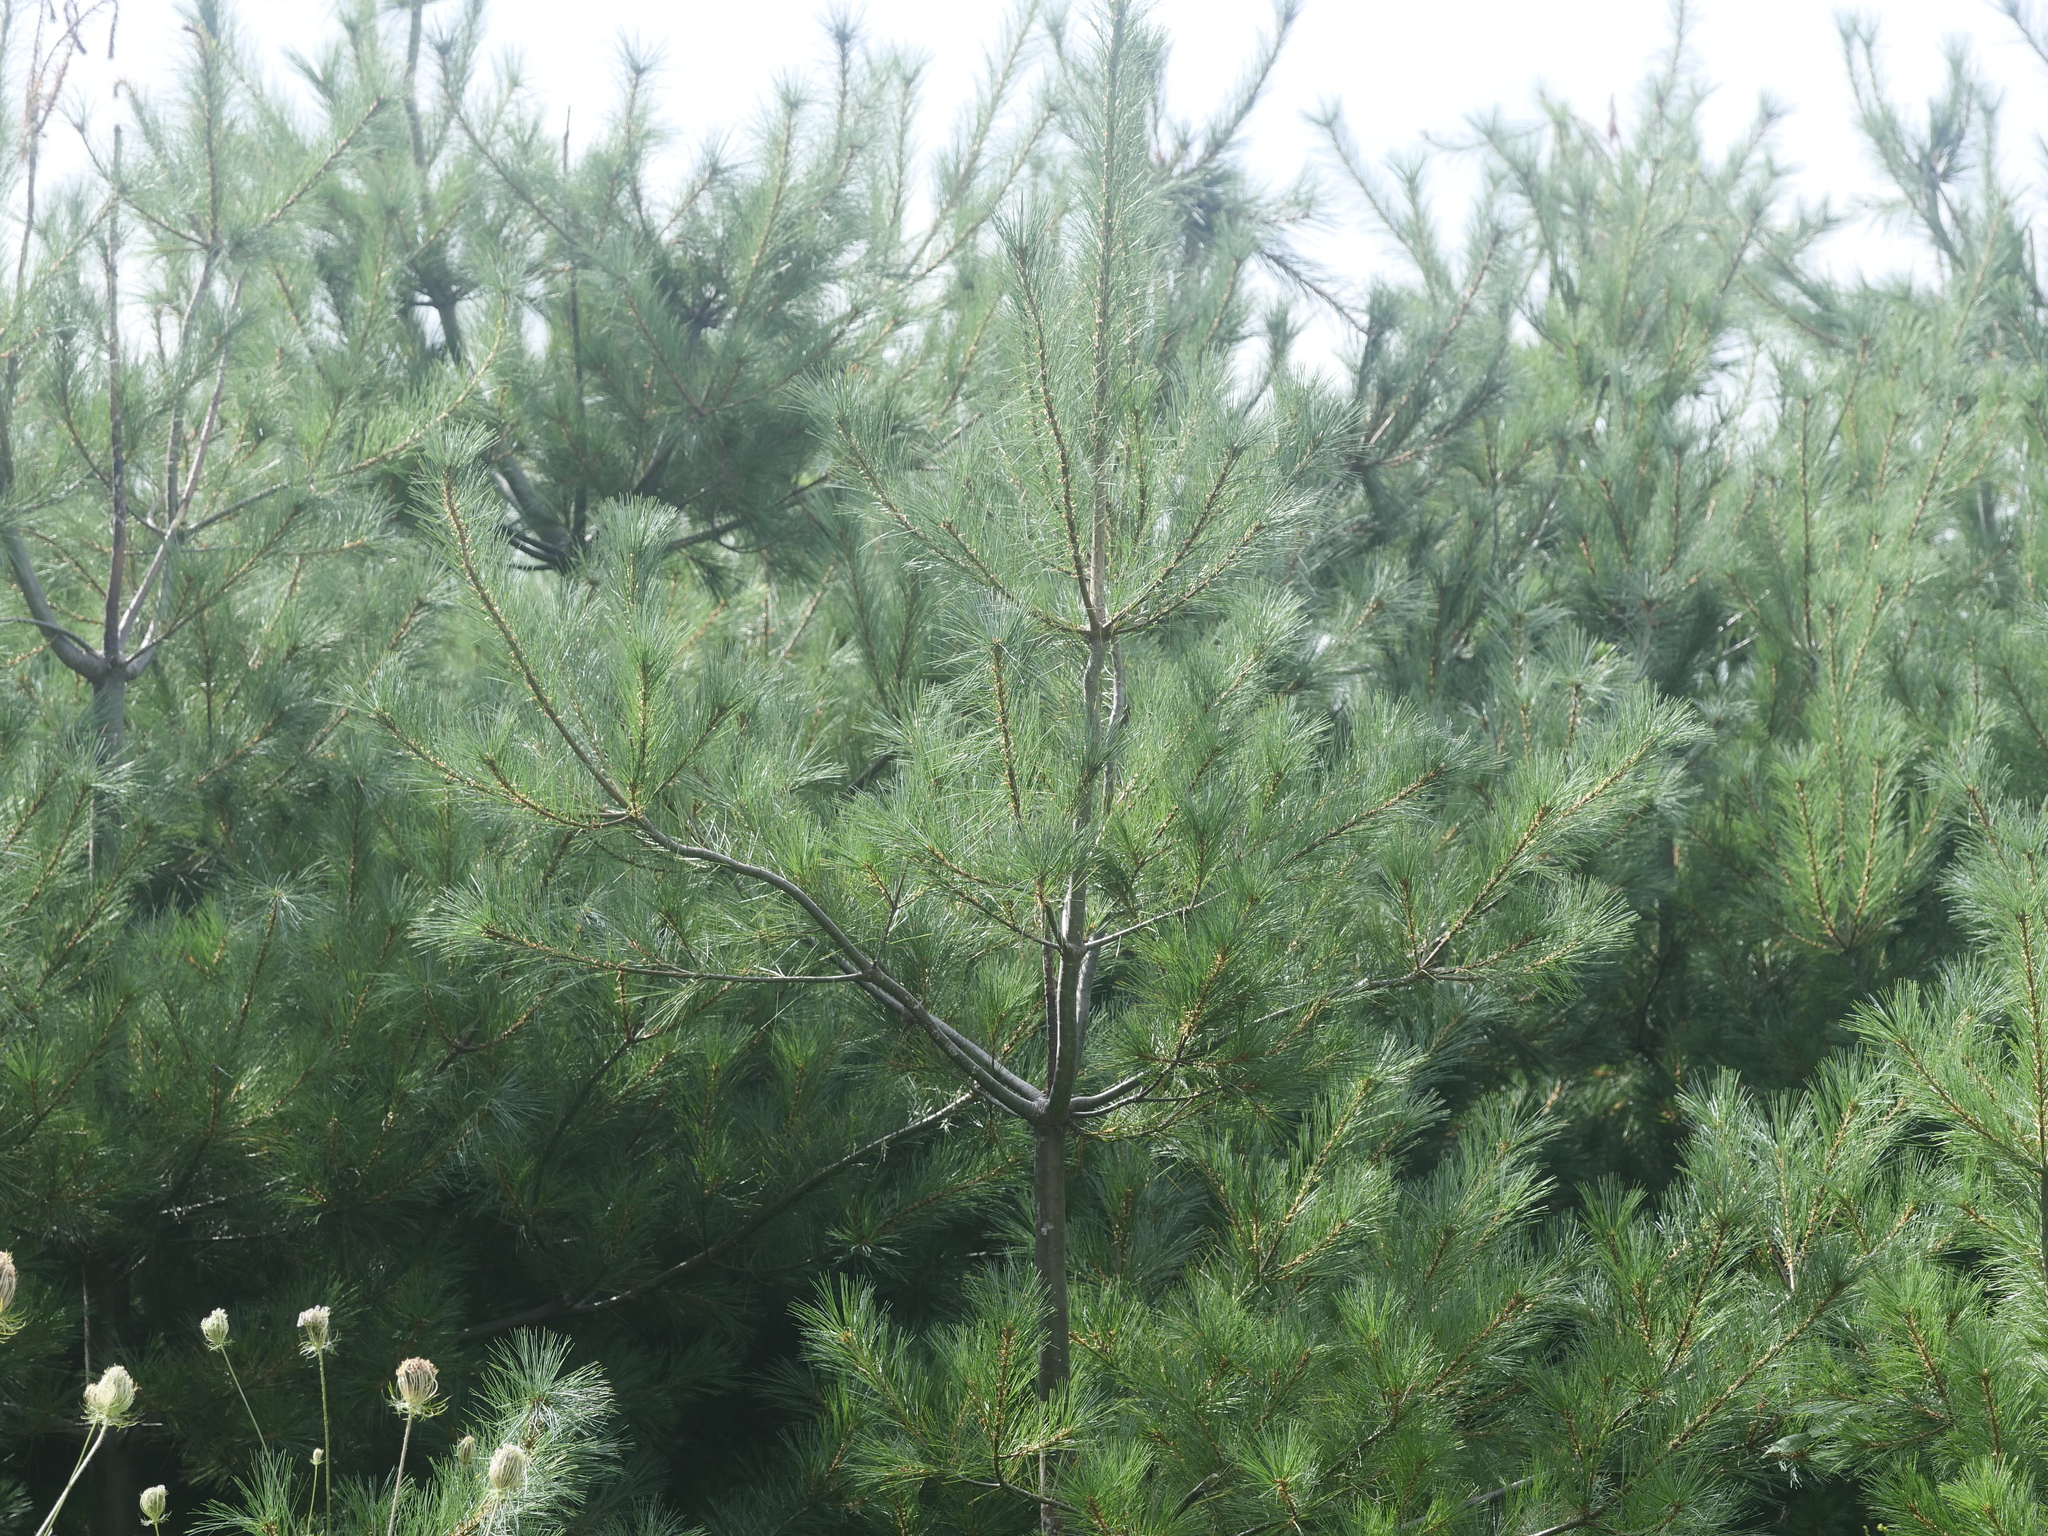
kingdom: Plantae
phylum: Tracheophyta
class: Pinopsida
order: Pinales
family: Pinaceae
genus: Pinus
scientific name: Pinus strobus
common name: Weymouth pine
